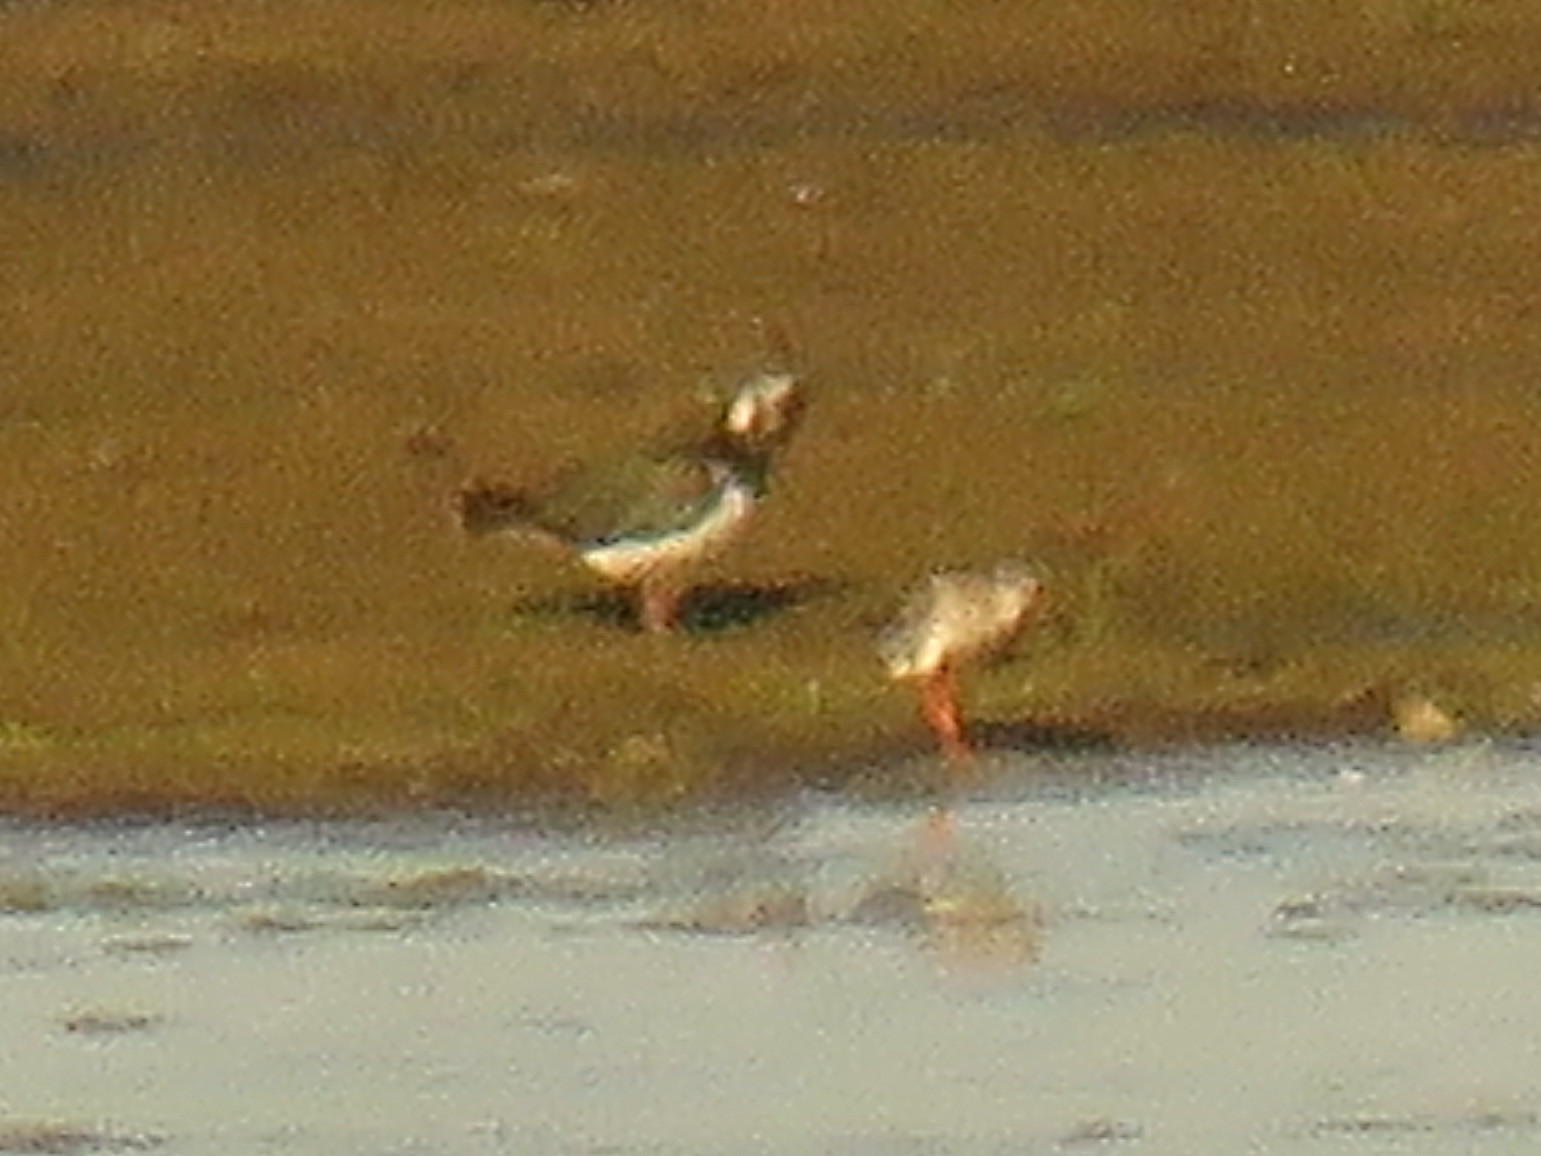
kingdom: Animalia
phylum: Chordata
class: Aves
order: Charadriiformes
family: Charadriidae
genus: Vanellus
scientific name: Vanellus vanellus
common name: Northern lapwing
